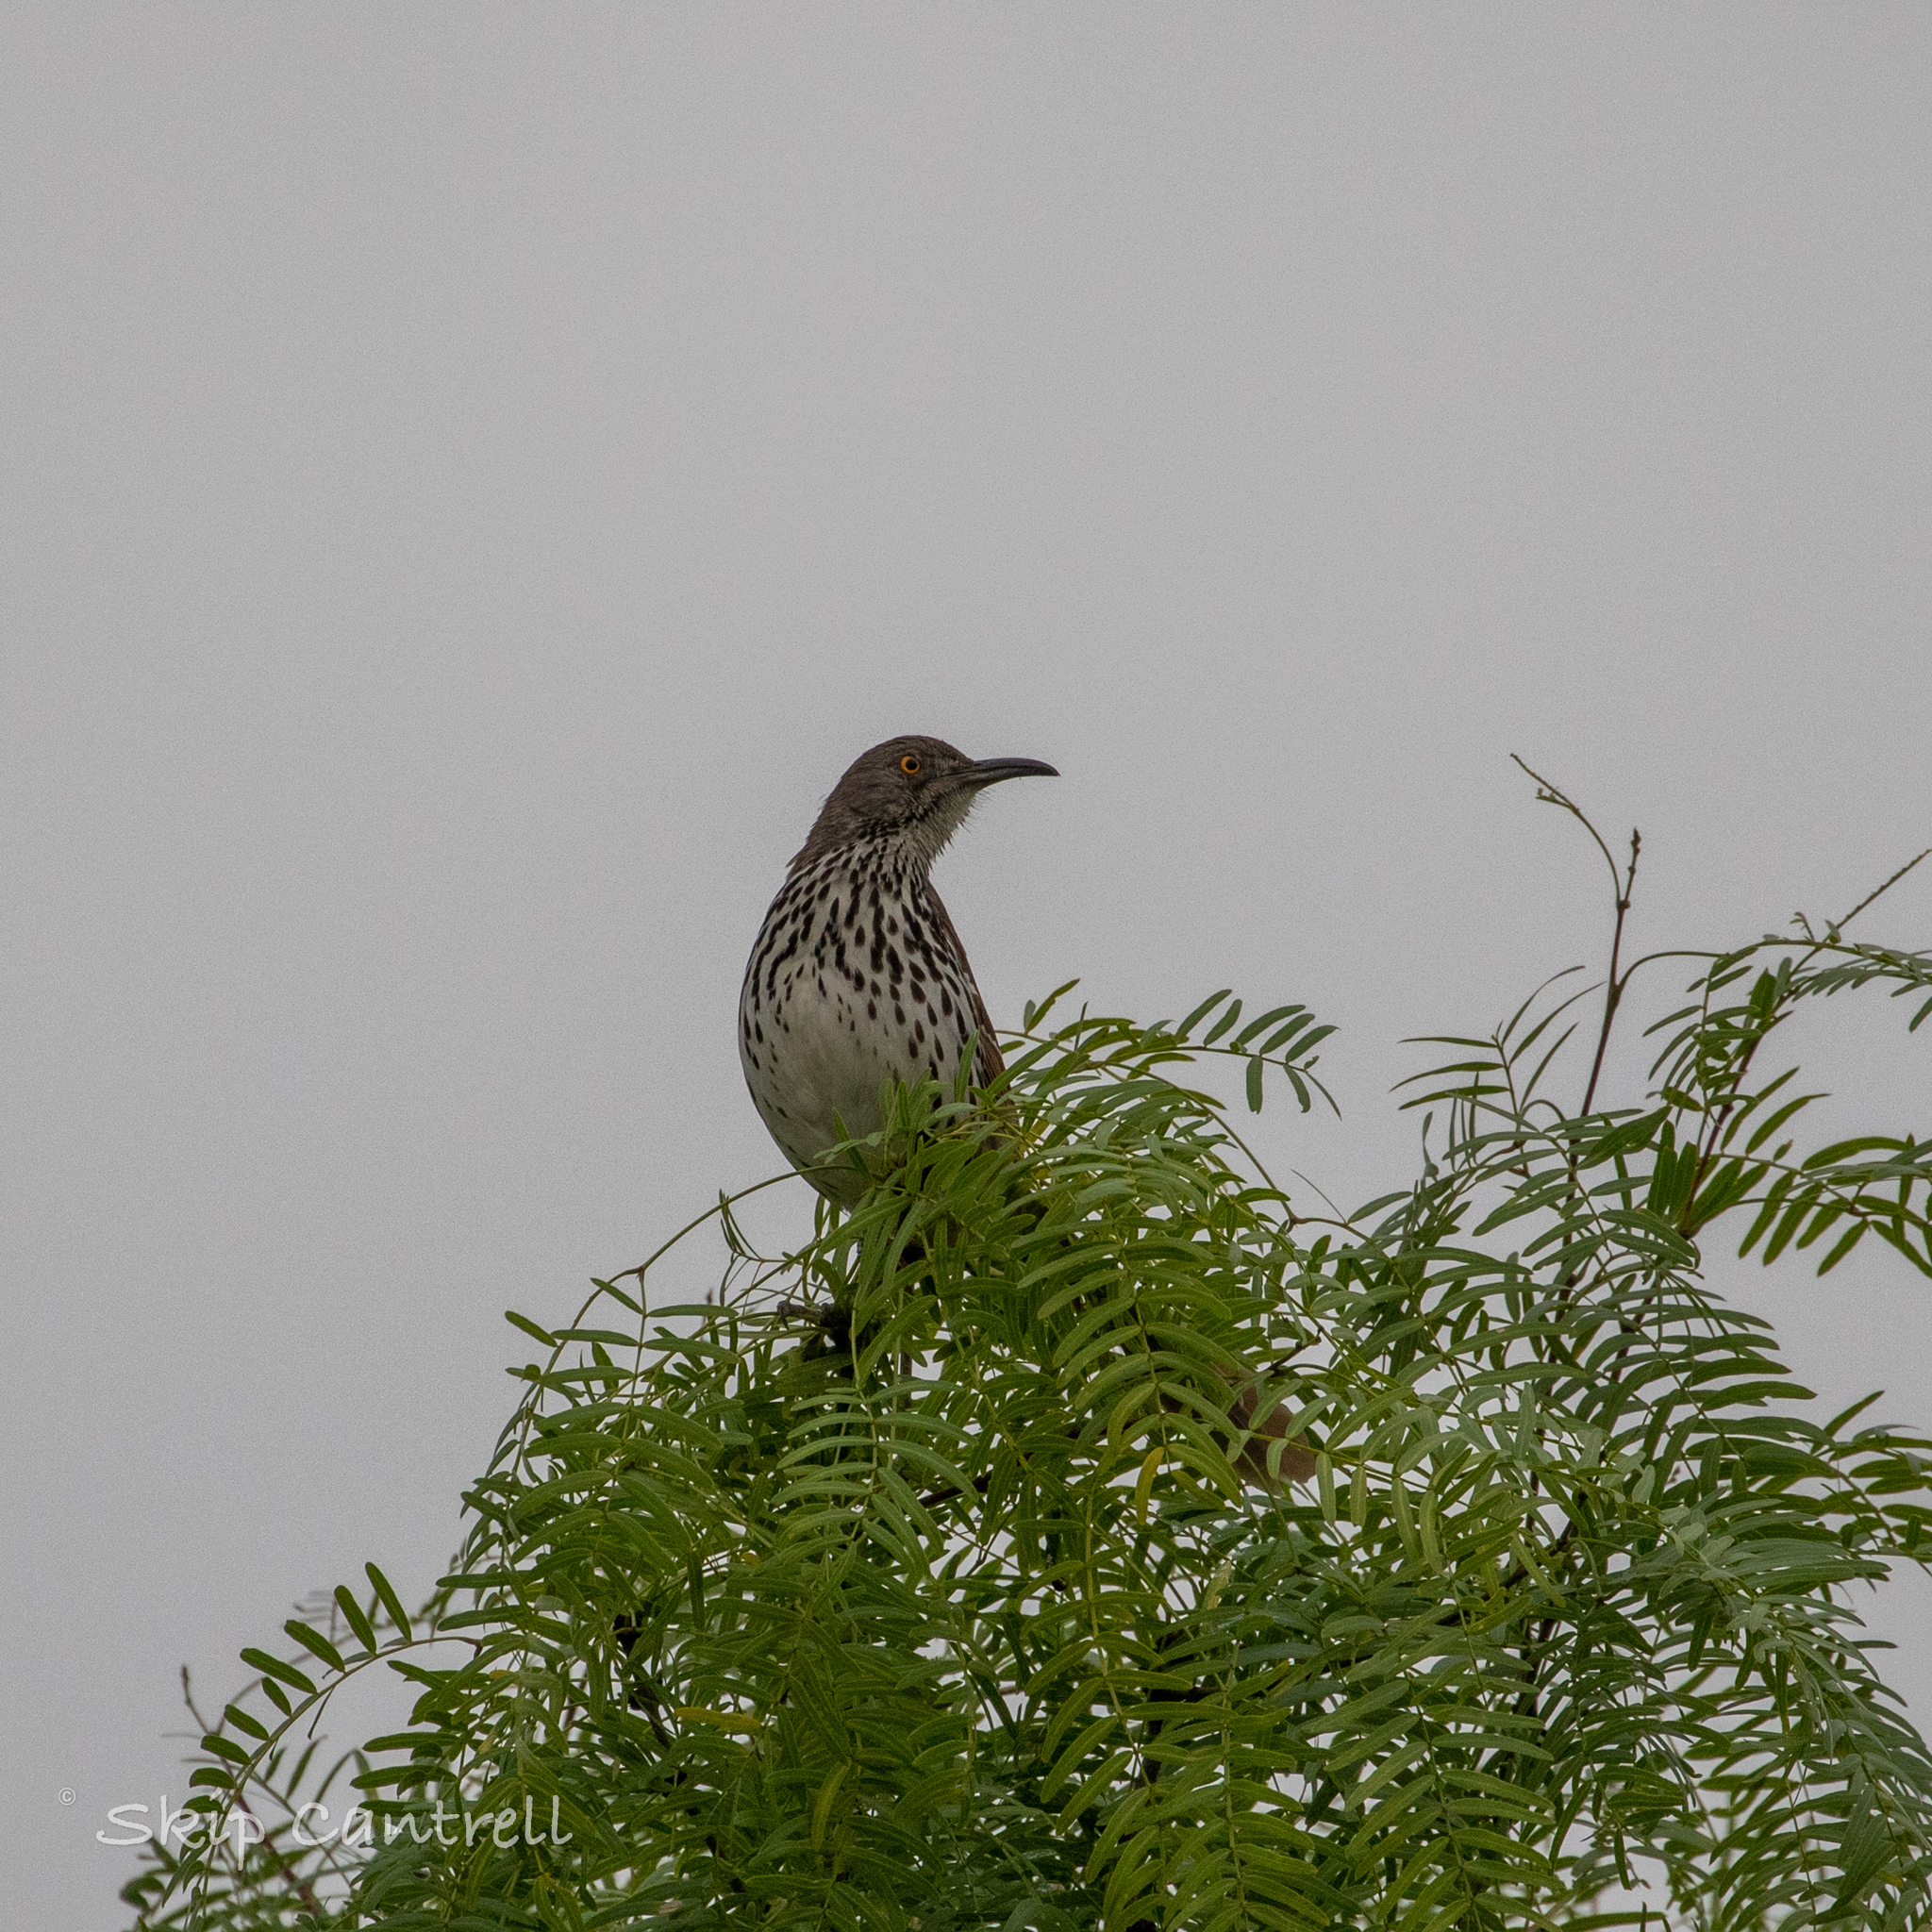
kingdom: Animalia
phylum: Chordata
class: Aves
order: Passeriformes
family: Mimidae
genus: Toxostoma
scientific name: Toxostoma longirostre
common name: Long-billed thrasher
